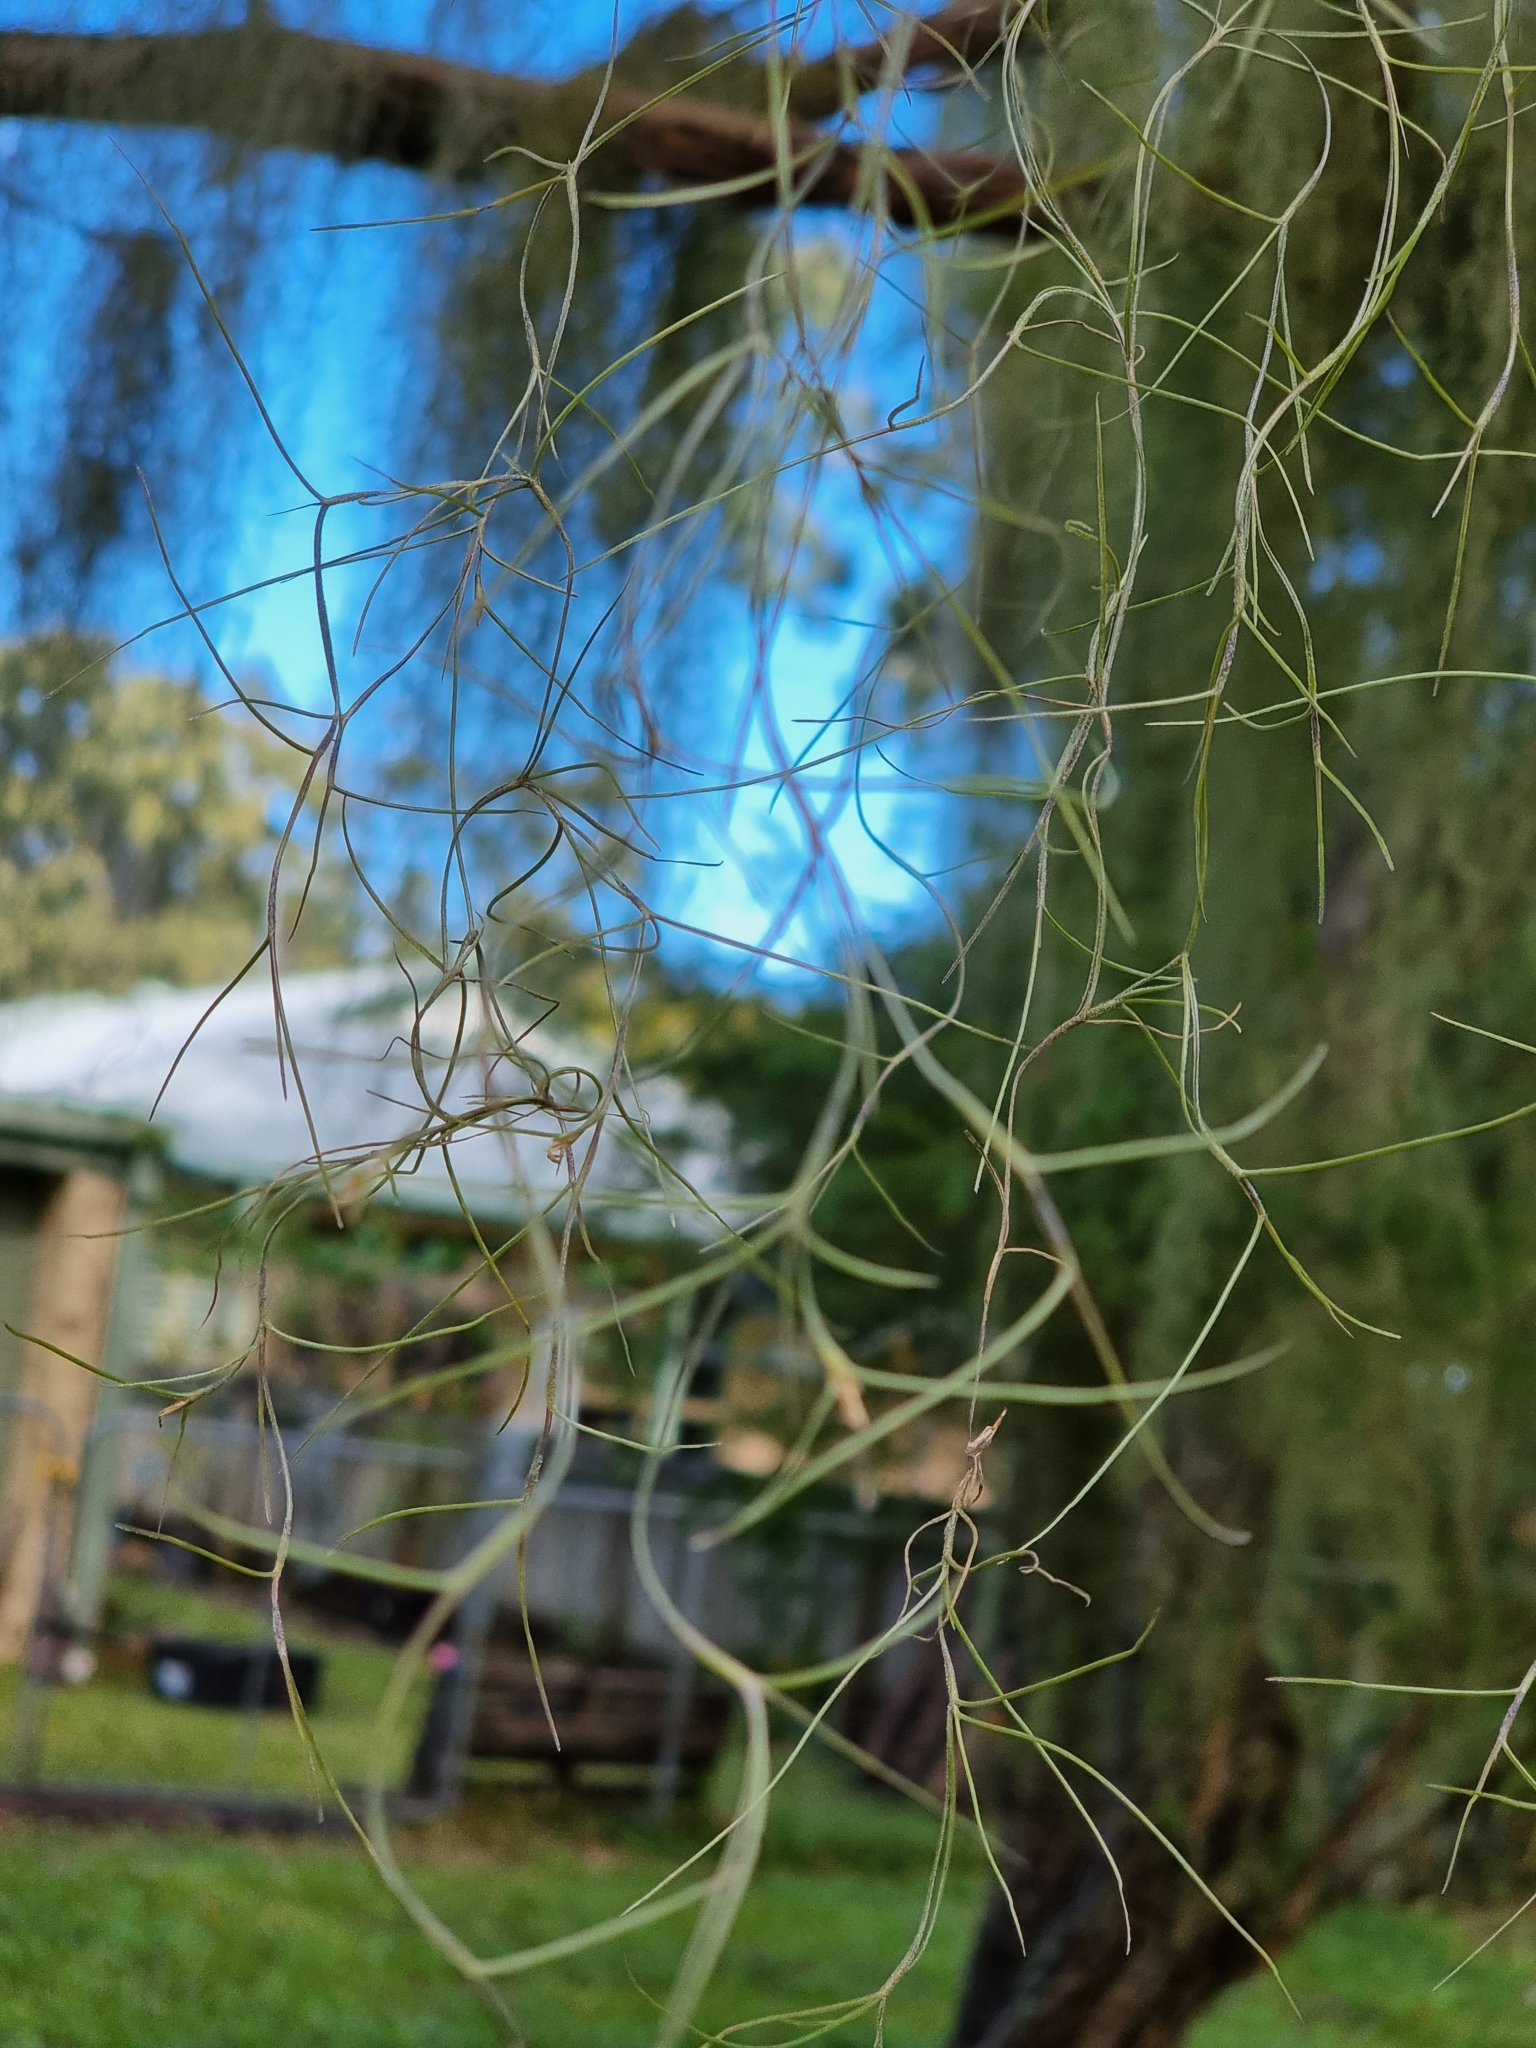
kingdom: Plantae
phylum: Tracheophyta
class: Liliopsida
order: Poales
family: Bromeliaceae
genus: Tillandsia
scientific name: Tillandsia usneoides
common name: Spanish moss
